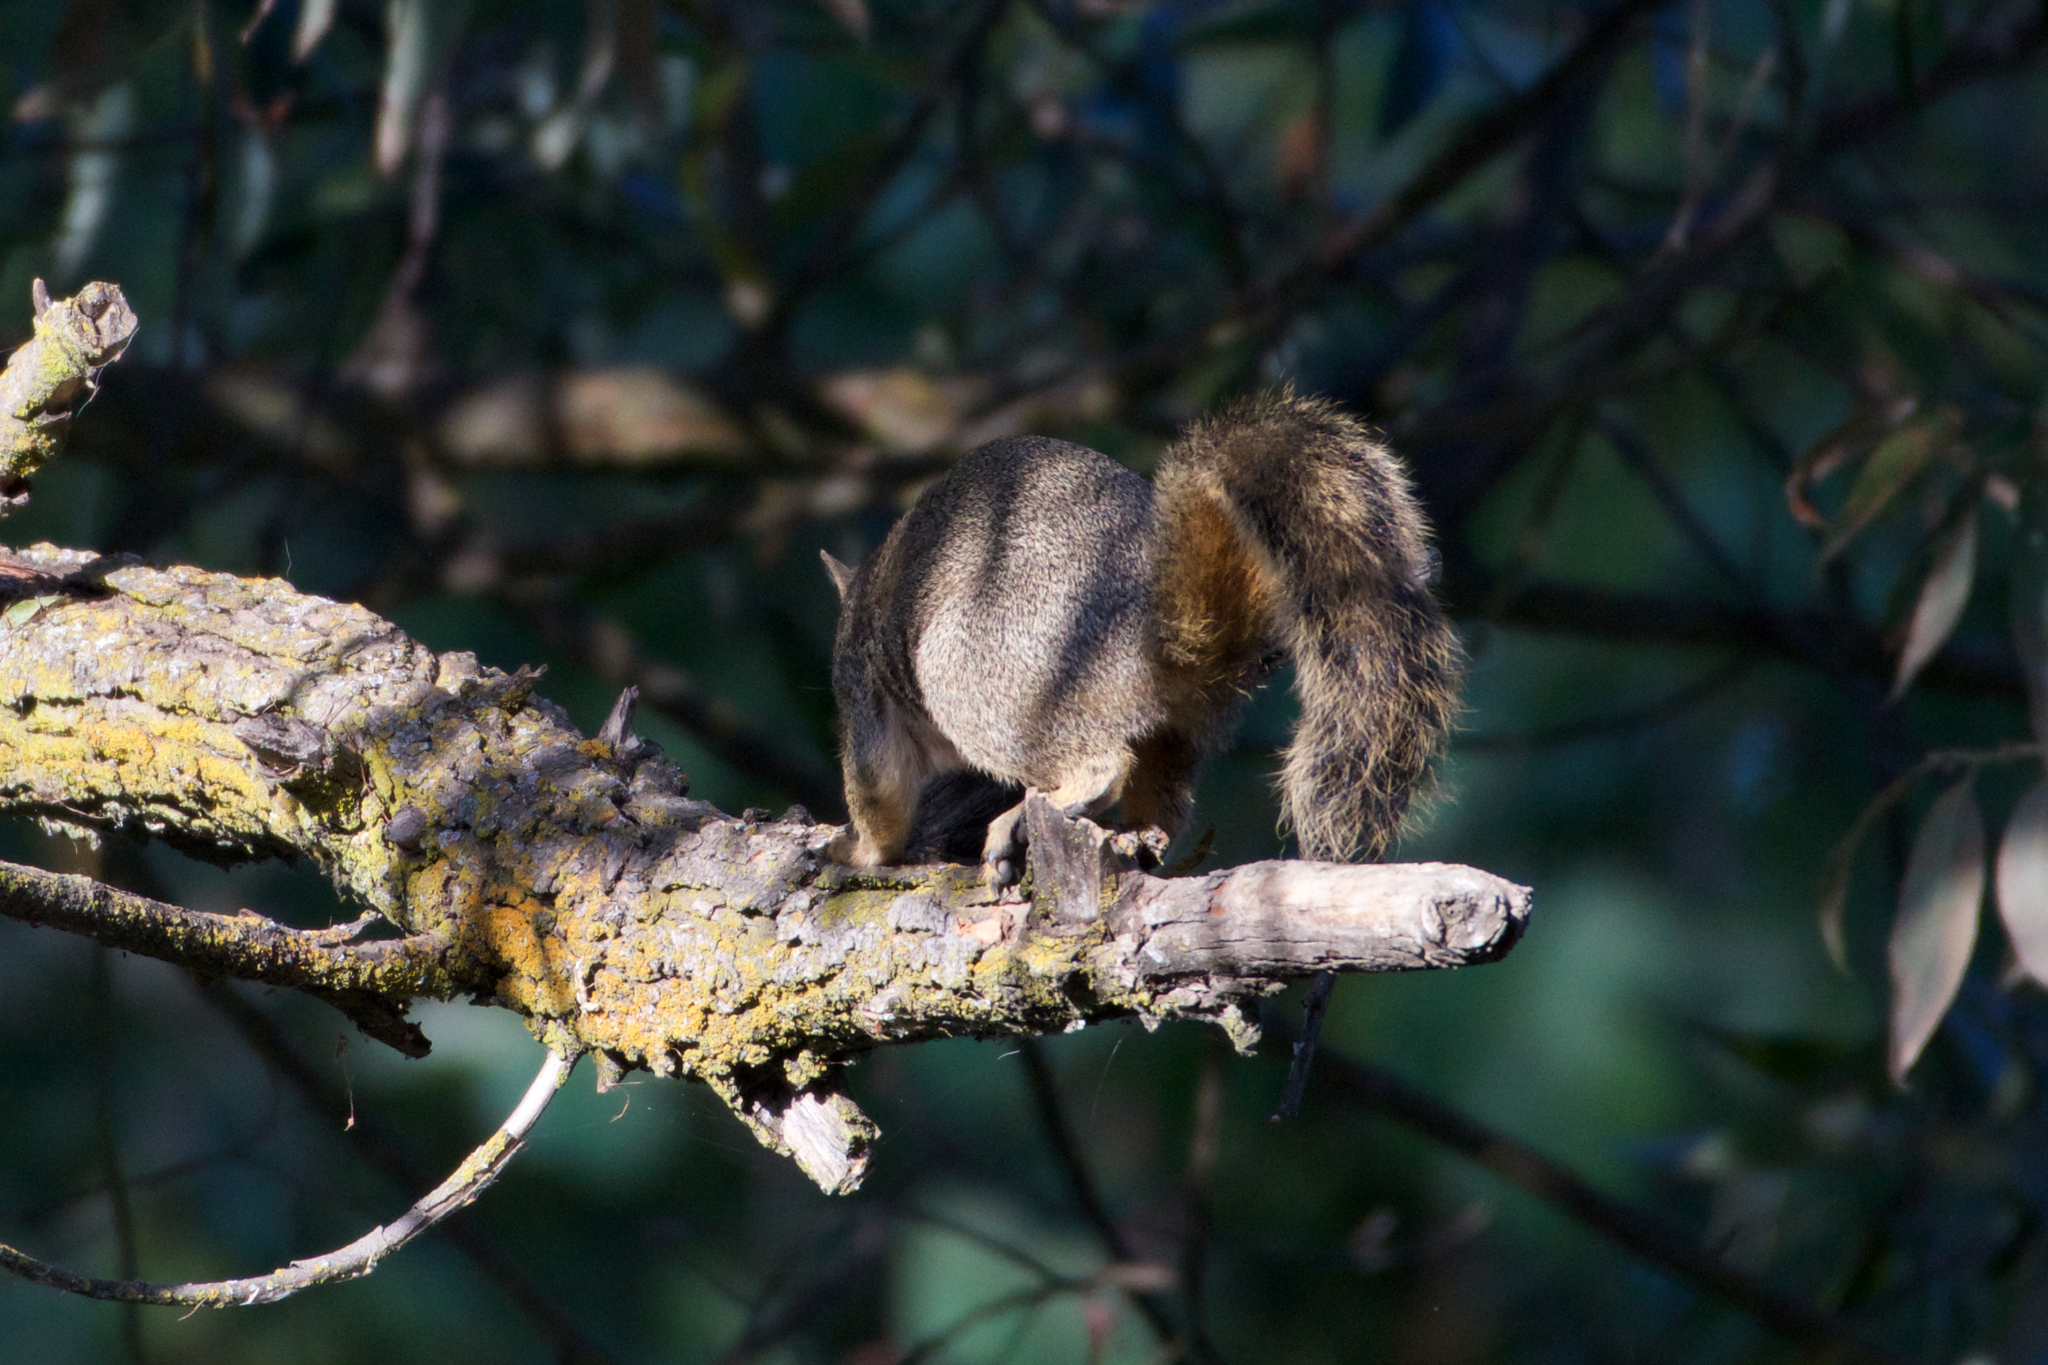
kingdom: Animalia
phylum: Chordata
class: Mammalia
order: Rodentia
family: Sciuridae
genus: Sciurus
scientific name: Sciurus niger
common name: Fox squirrel
